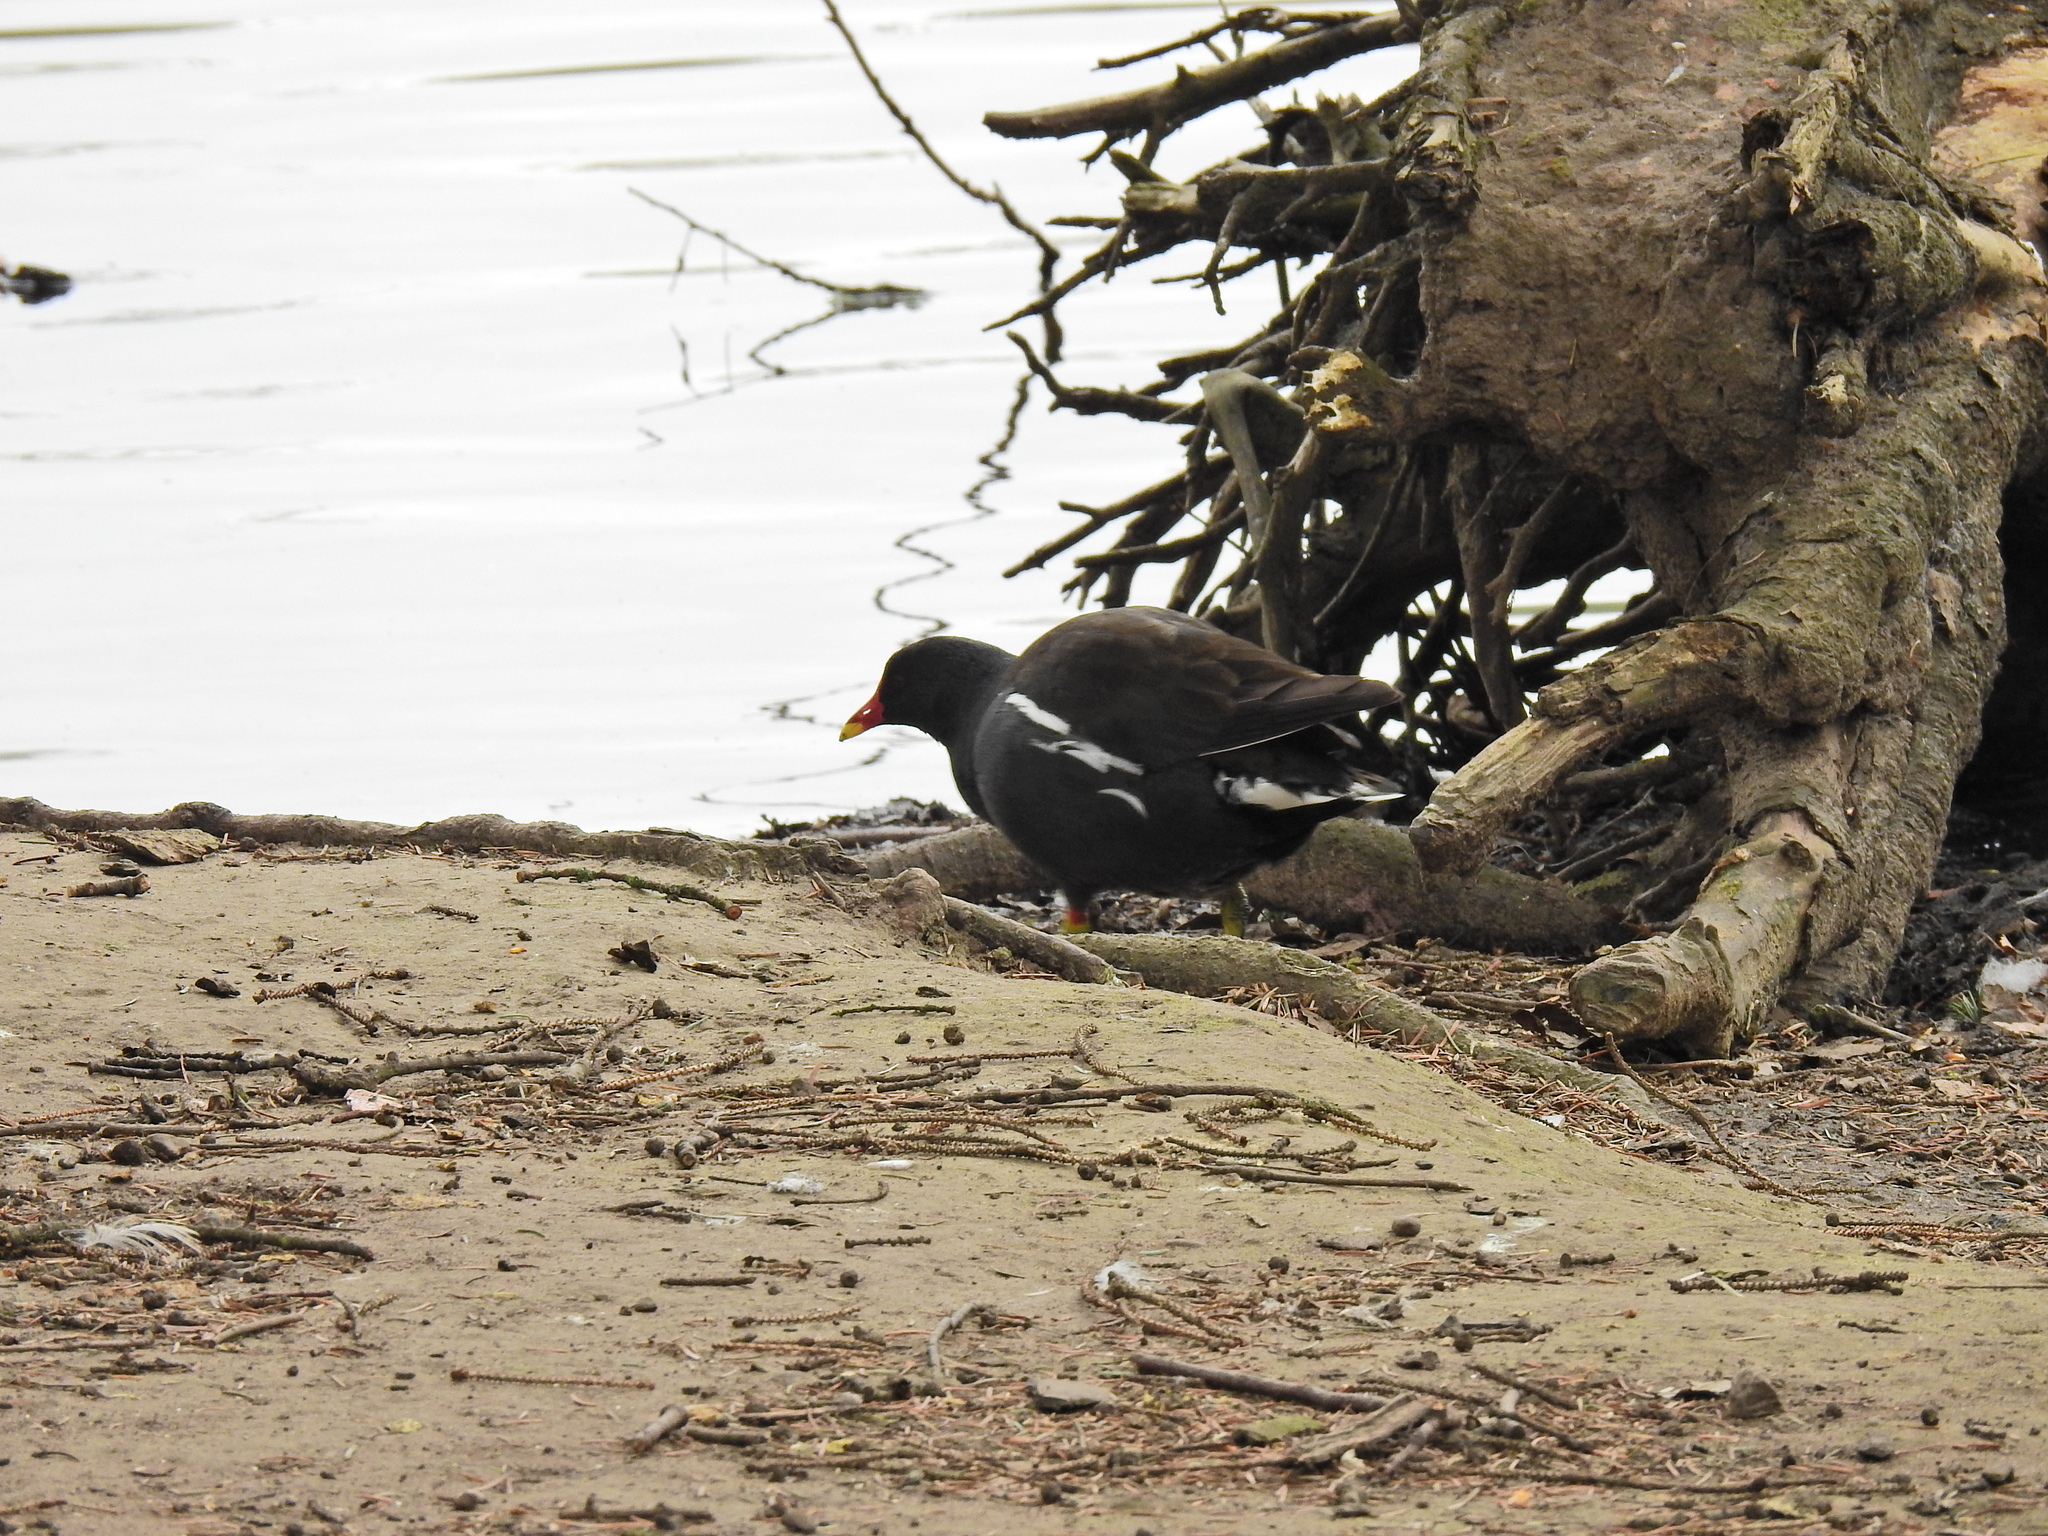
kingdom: Animalia
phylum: Chordata
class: Aves
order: Gruiformes
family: Rallidae
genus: Gallinula
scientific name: Gallinula chloropus
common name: Common moorhen
